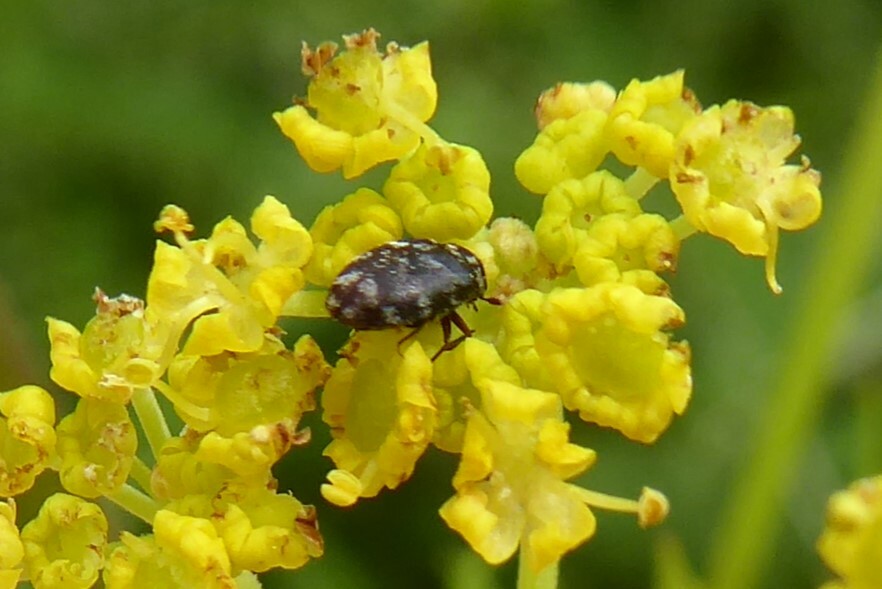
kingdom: Animalia
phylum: Arthropoda
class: Insecta
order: Coleoptera
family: Dermestidae
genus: Anthrenocerus
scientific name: Anthrenocerus australis
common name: Australian carpet beetle
